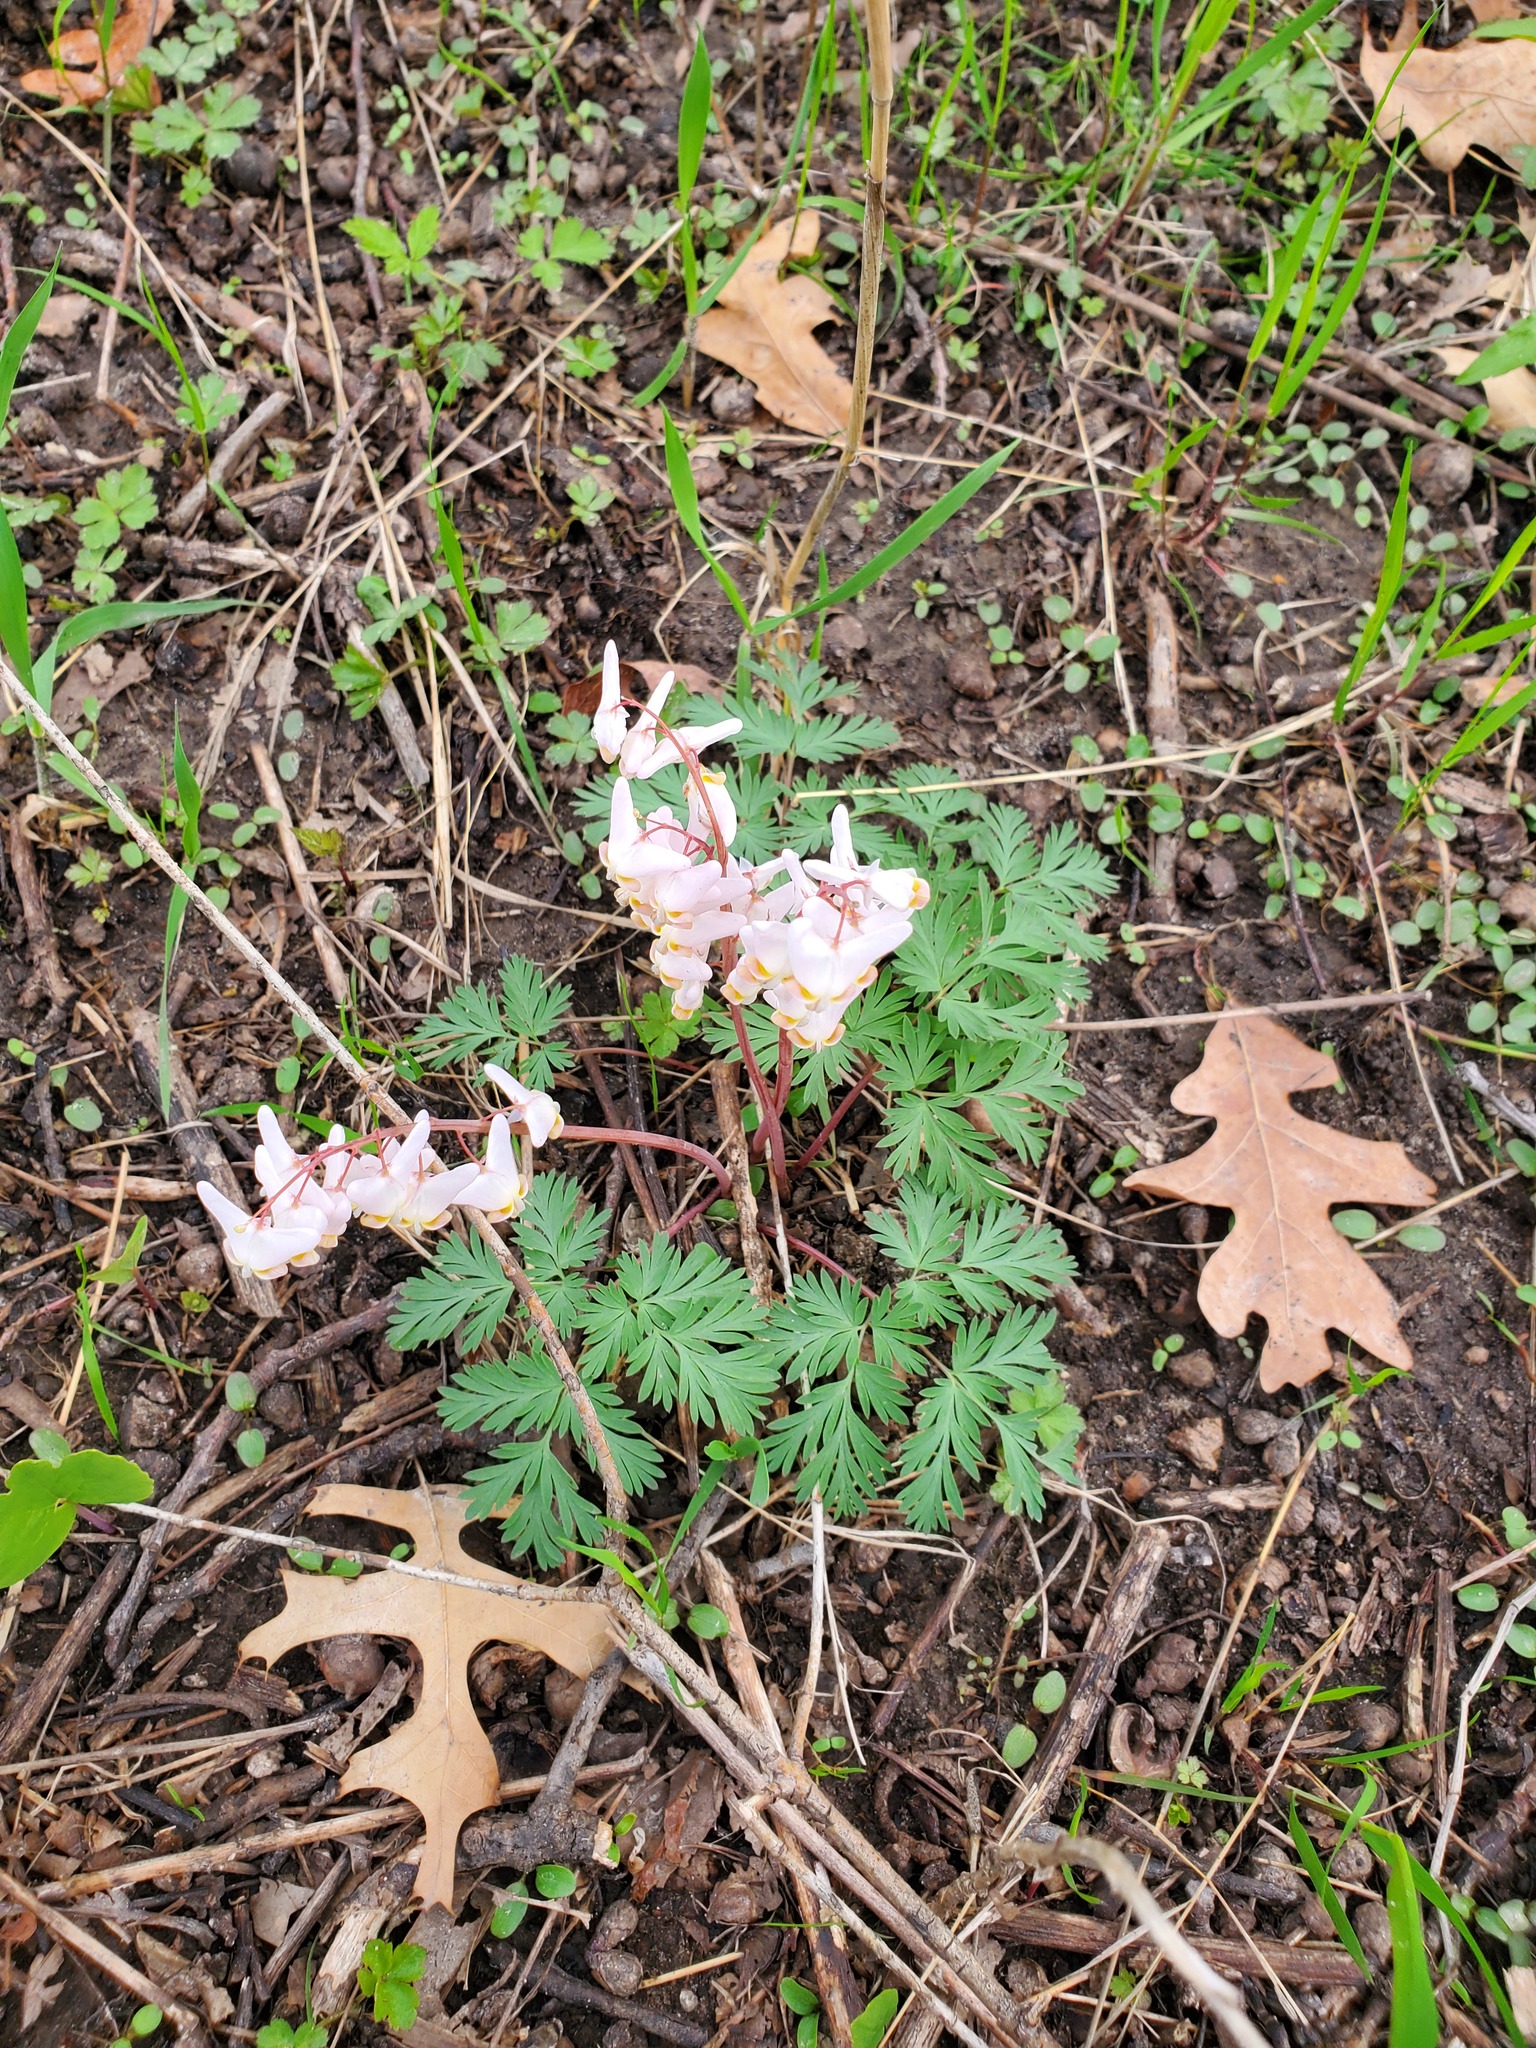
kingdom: Plantae
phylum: Tracheophyta
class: Magnoliopsida
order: Ranunculales
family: Papaveraceae
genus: Dicentra
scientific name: Dicentra cucullaria
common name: Dutchman's breeches
